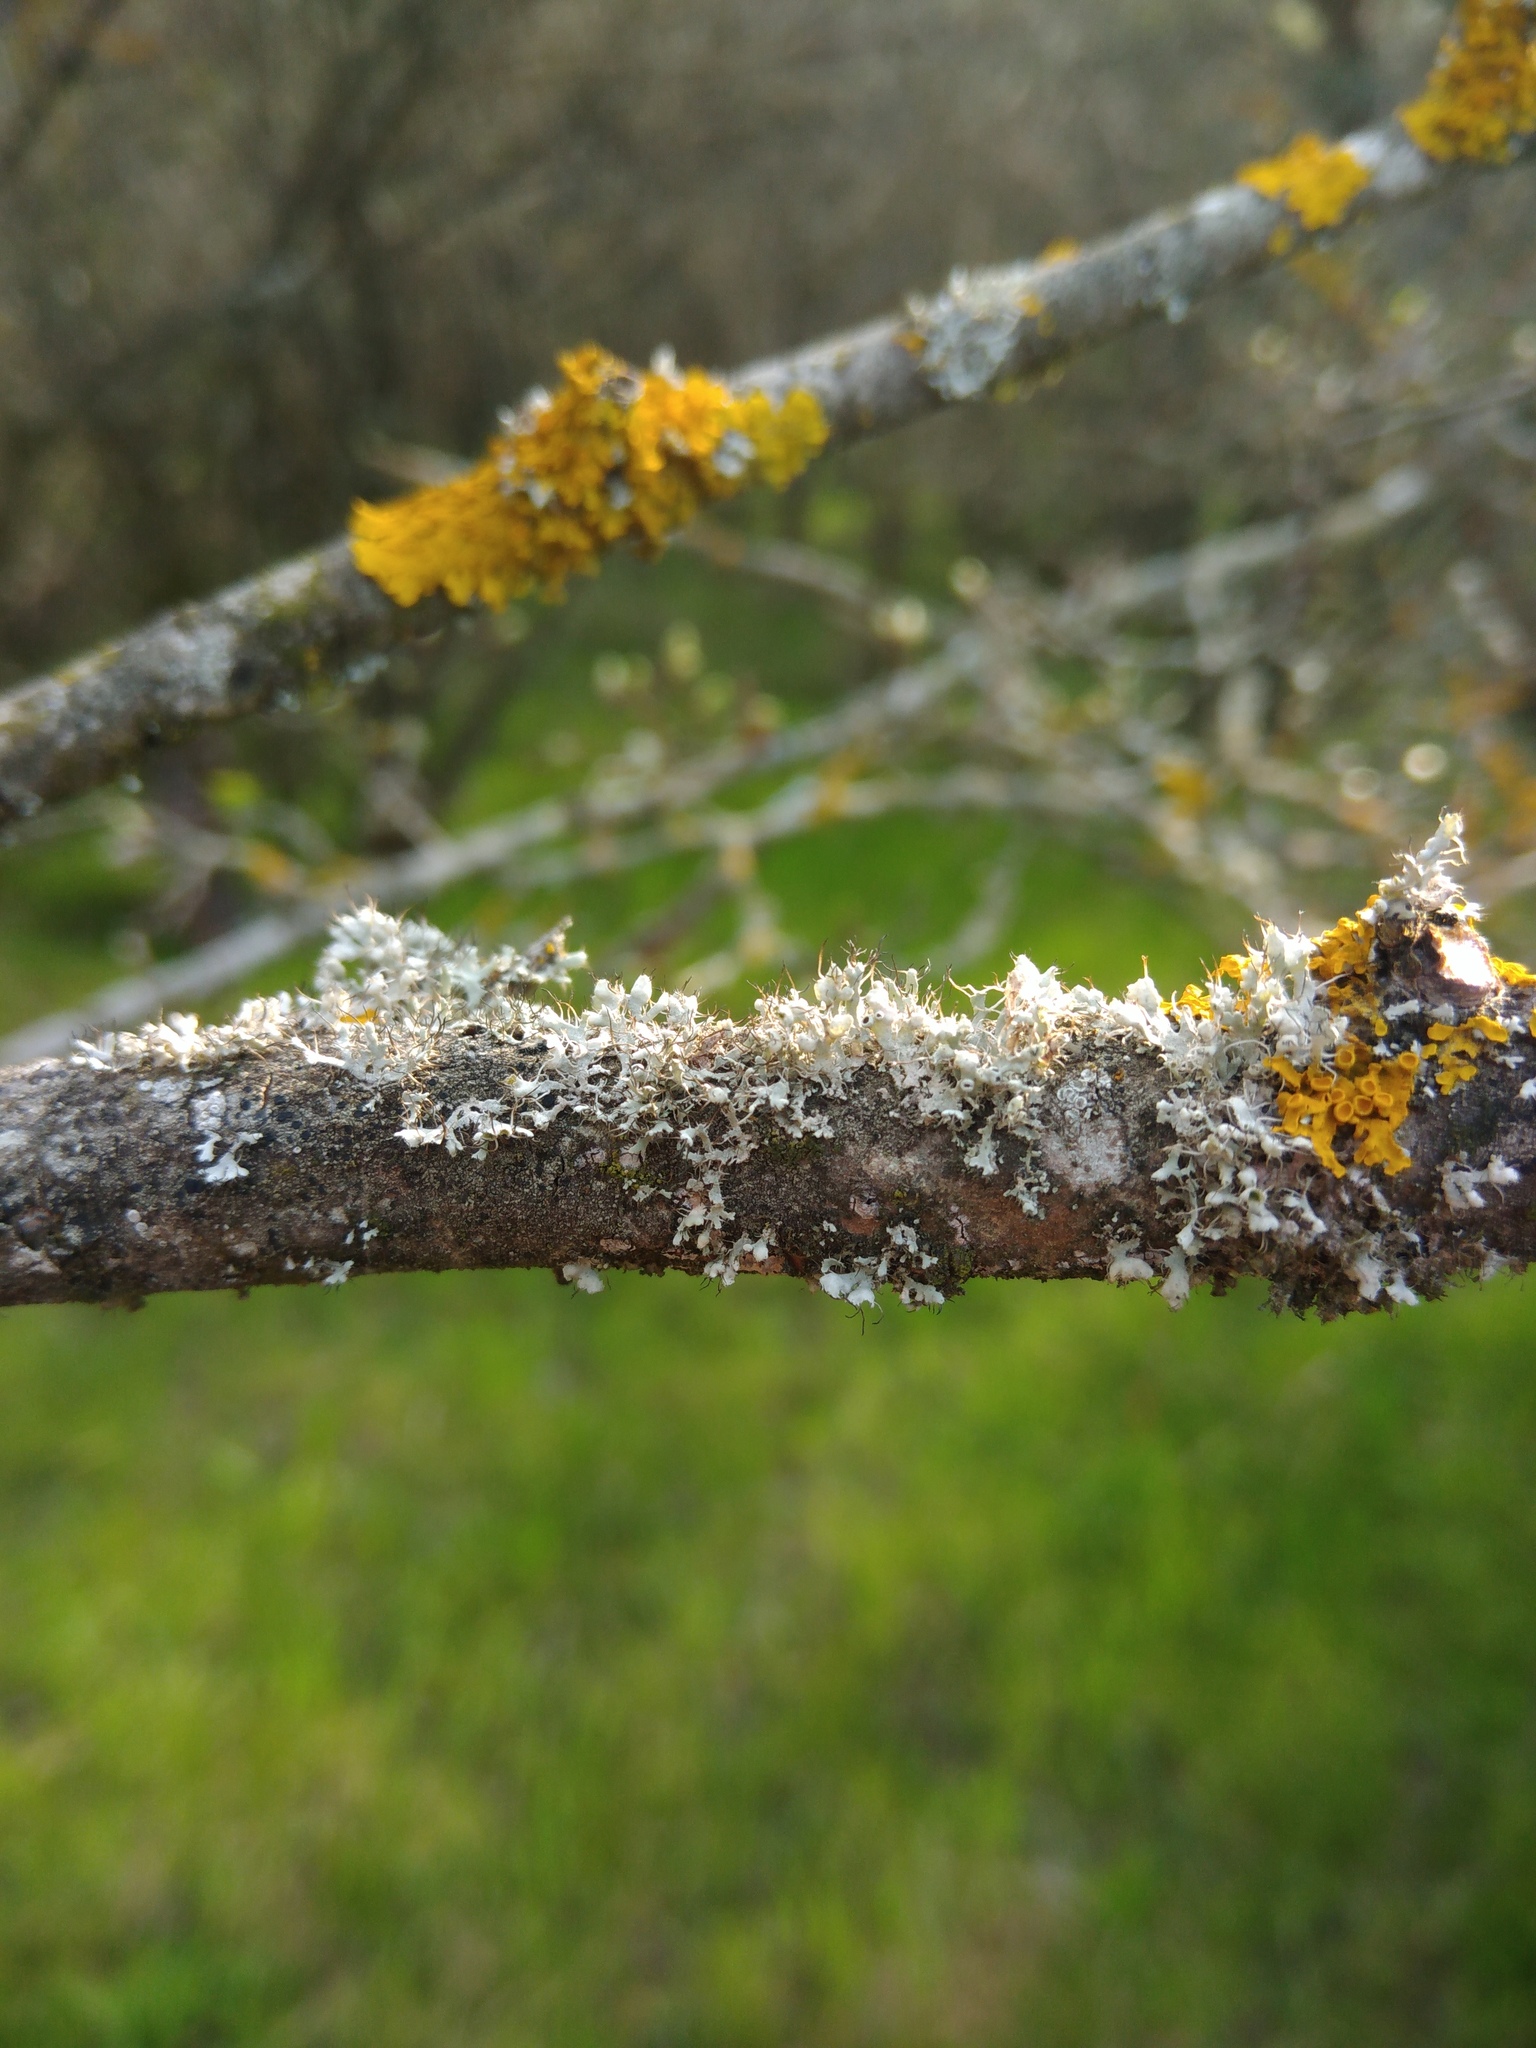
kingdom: Fungi
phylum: Ascomycota
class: Lecanoromycetes
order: Caliciales
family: Physciaceae
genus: Physcia
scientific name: Physcia adscendens
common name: Hooded rosette lichen
